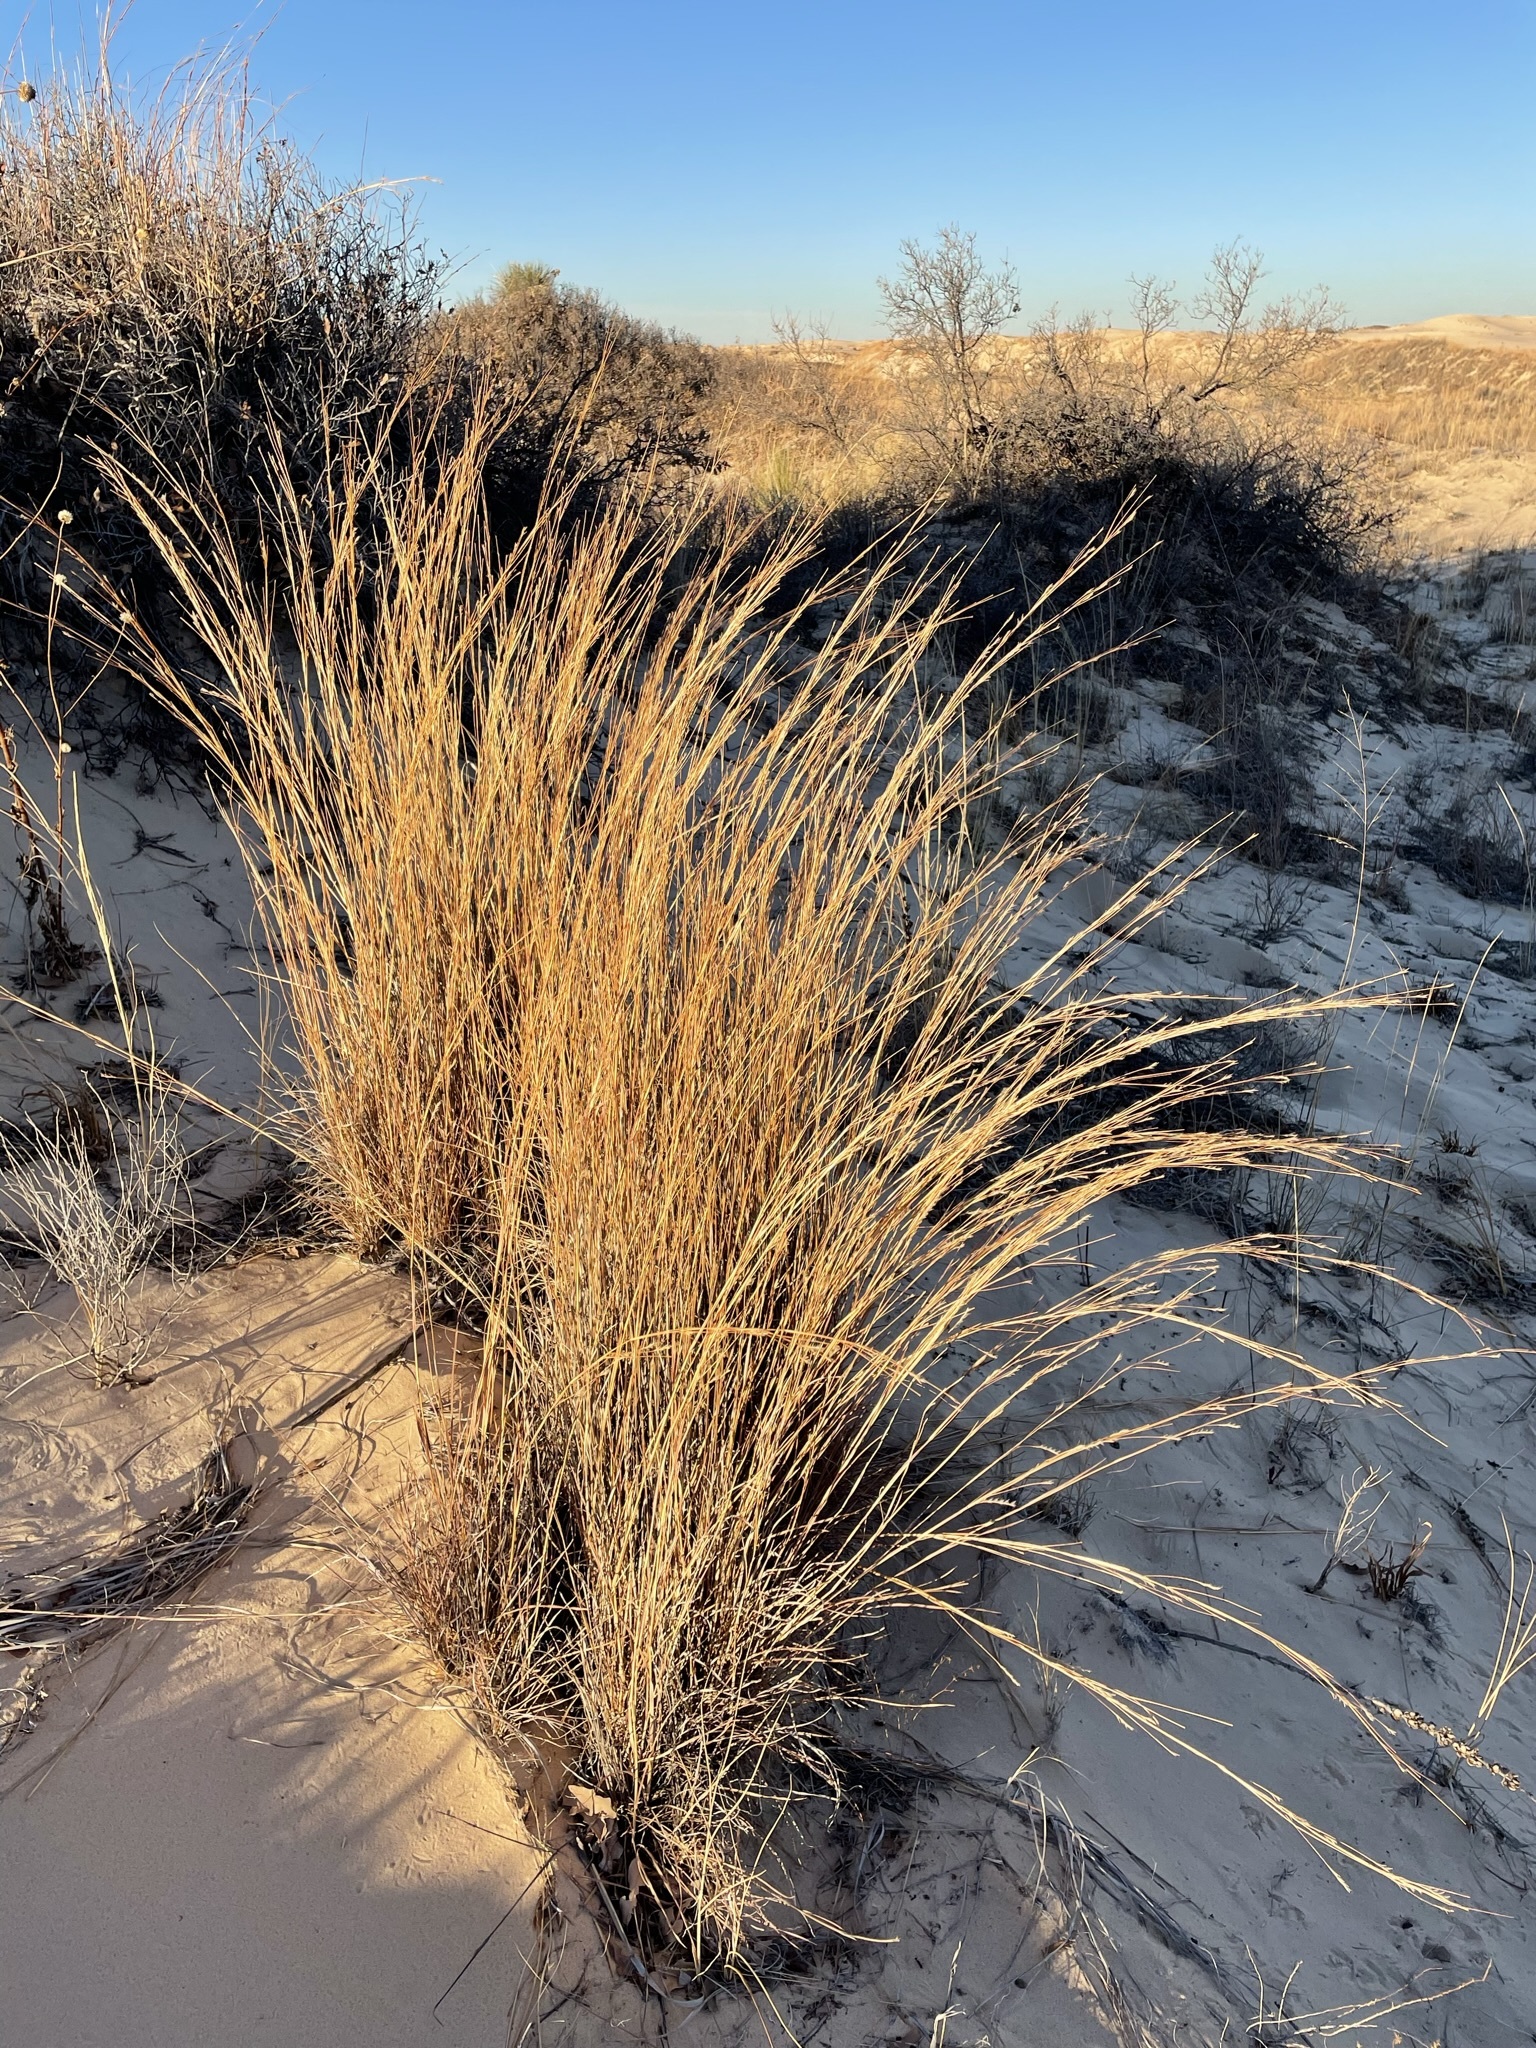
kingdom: Plantae
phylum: Tracheophyta
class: Liliopsida
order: Poales
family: Poaceae
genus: Schizachyrium
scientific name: Schizachyrium scoparium
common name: Little bluestem
